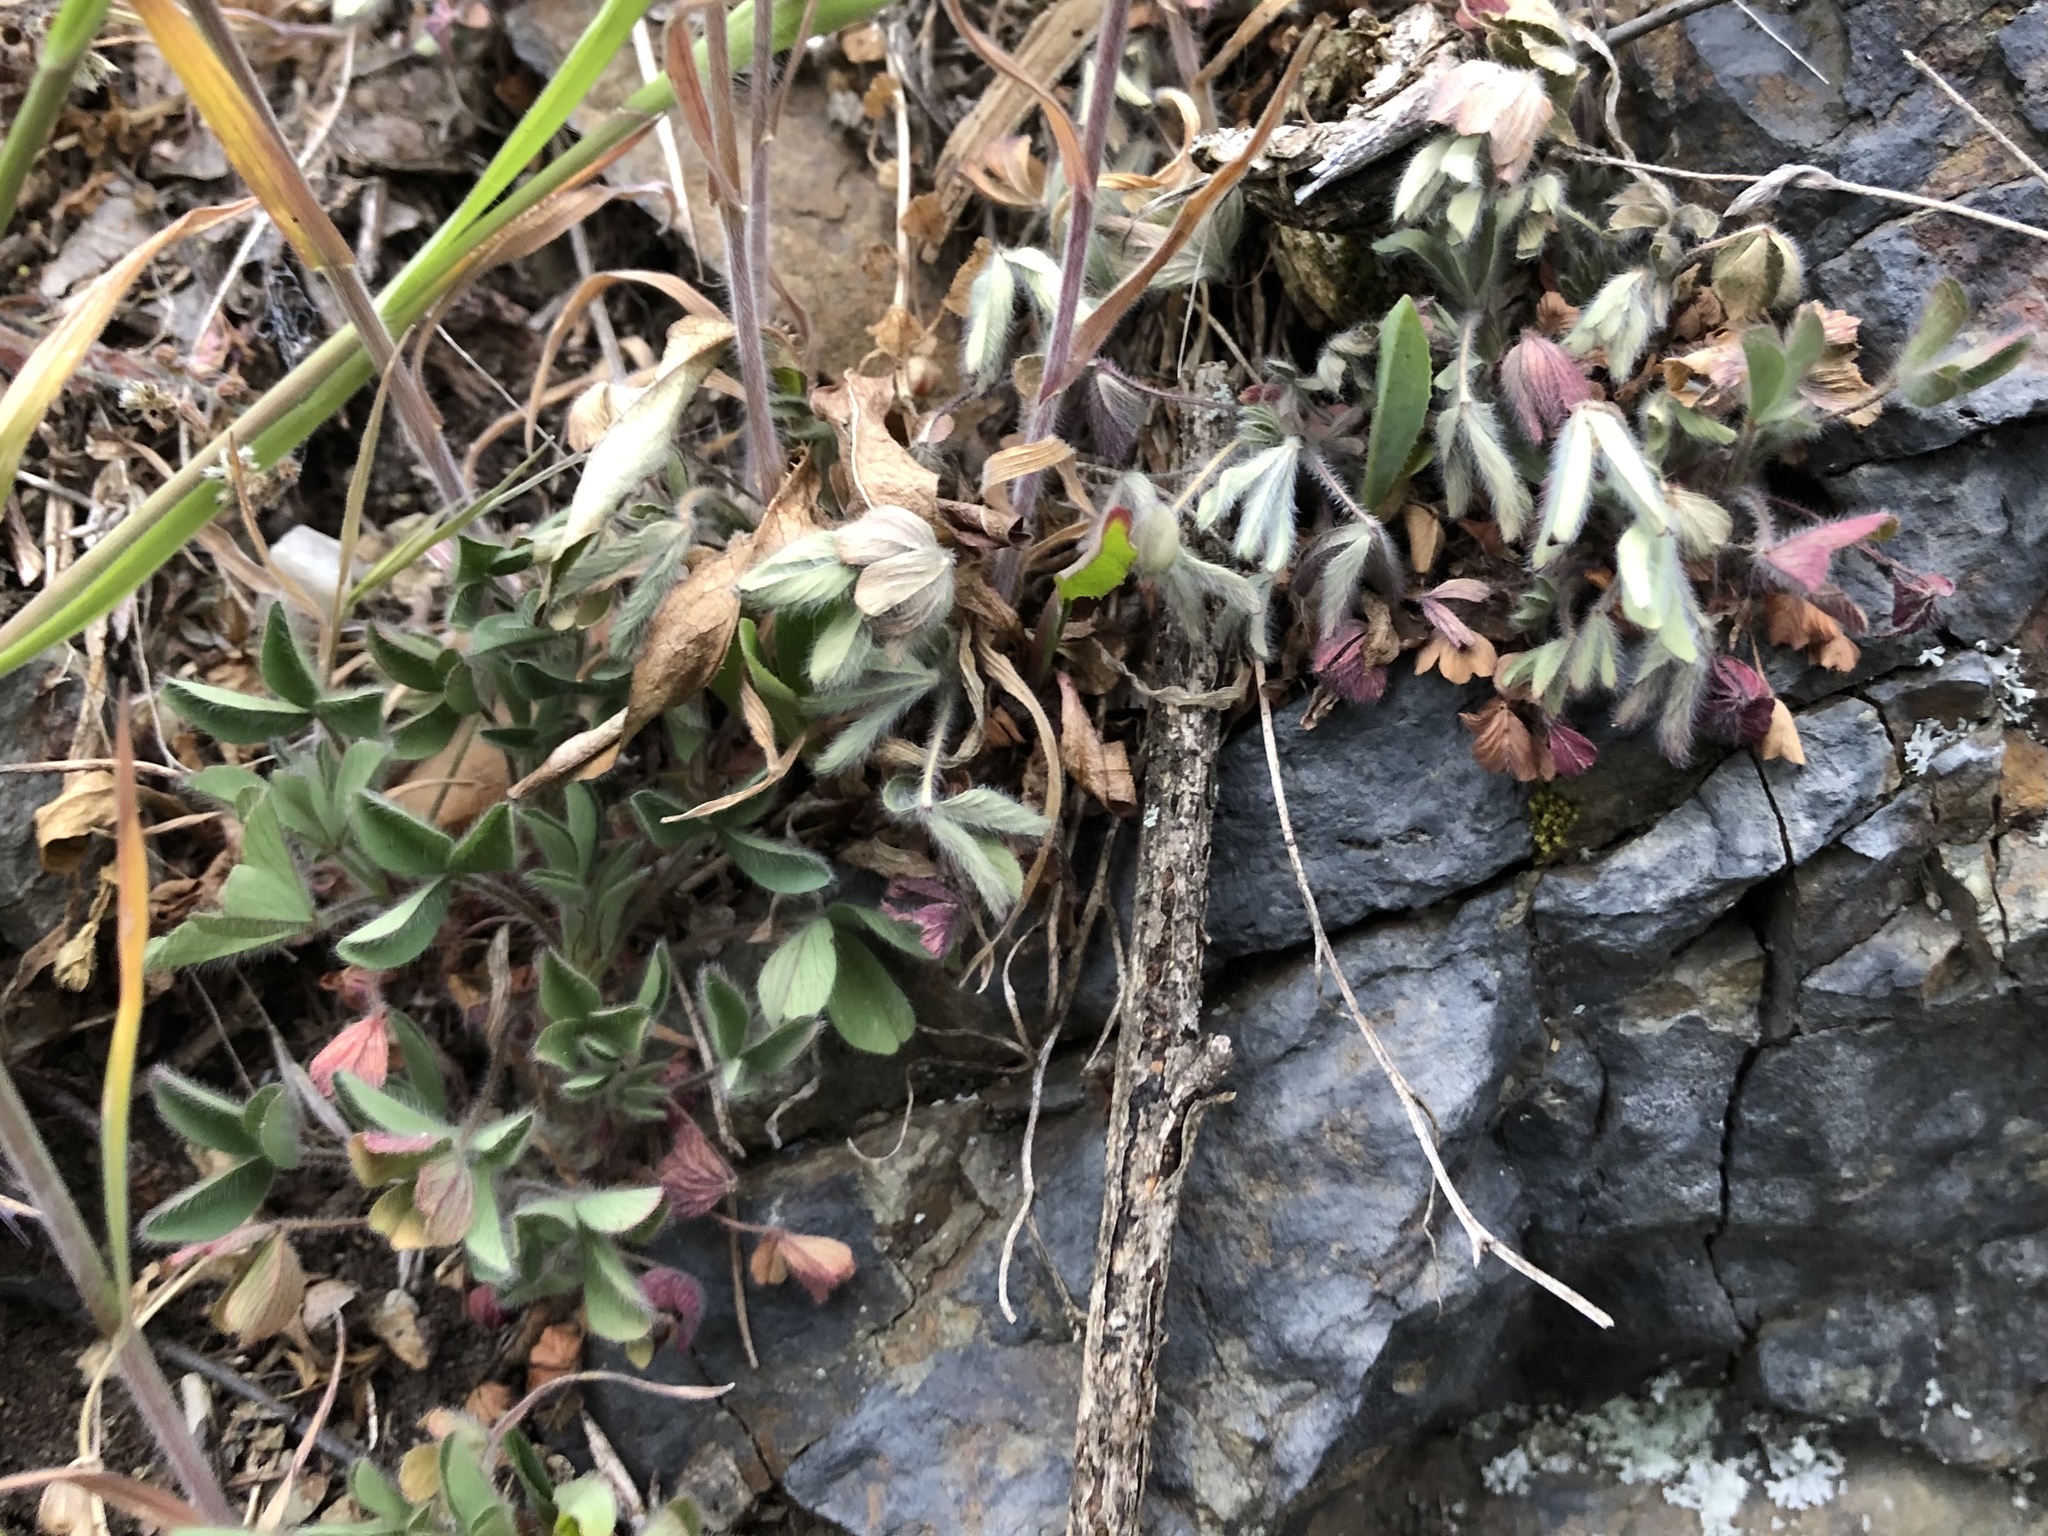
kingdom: Plantae
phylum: Tracheophyta
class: Magnoliopsida
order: Fabales
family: Fabaceae
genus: Trifolium
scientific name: Trifolium arvense
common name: Hare's-foot clover
